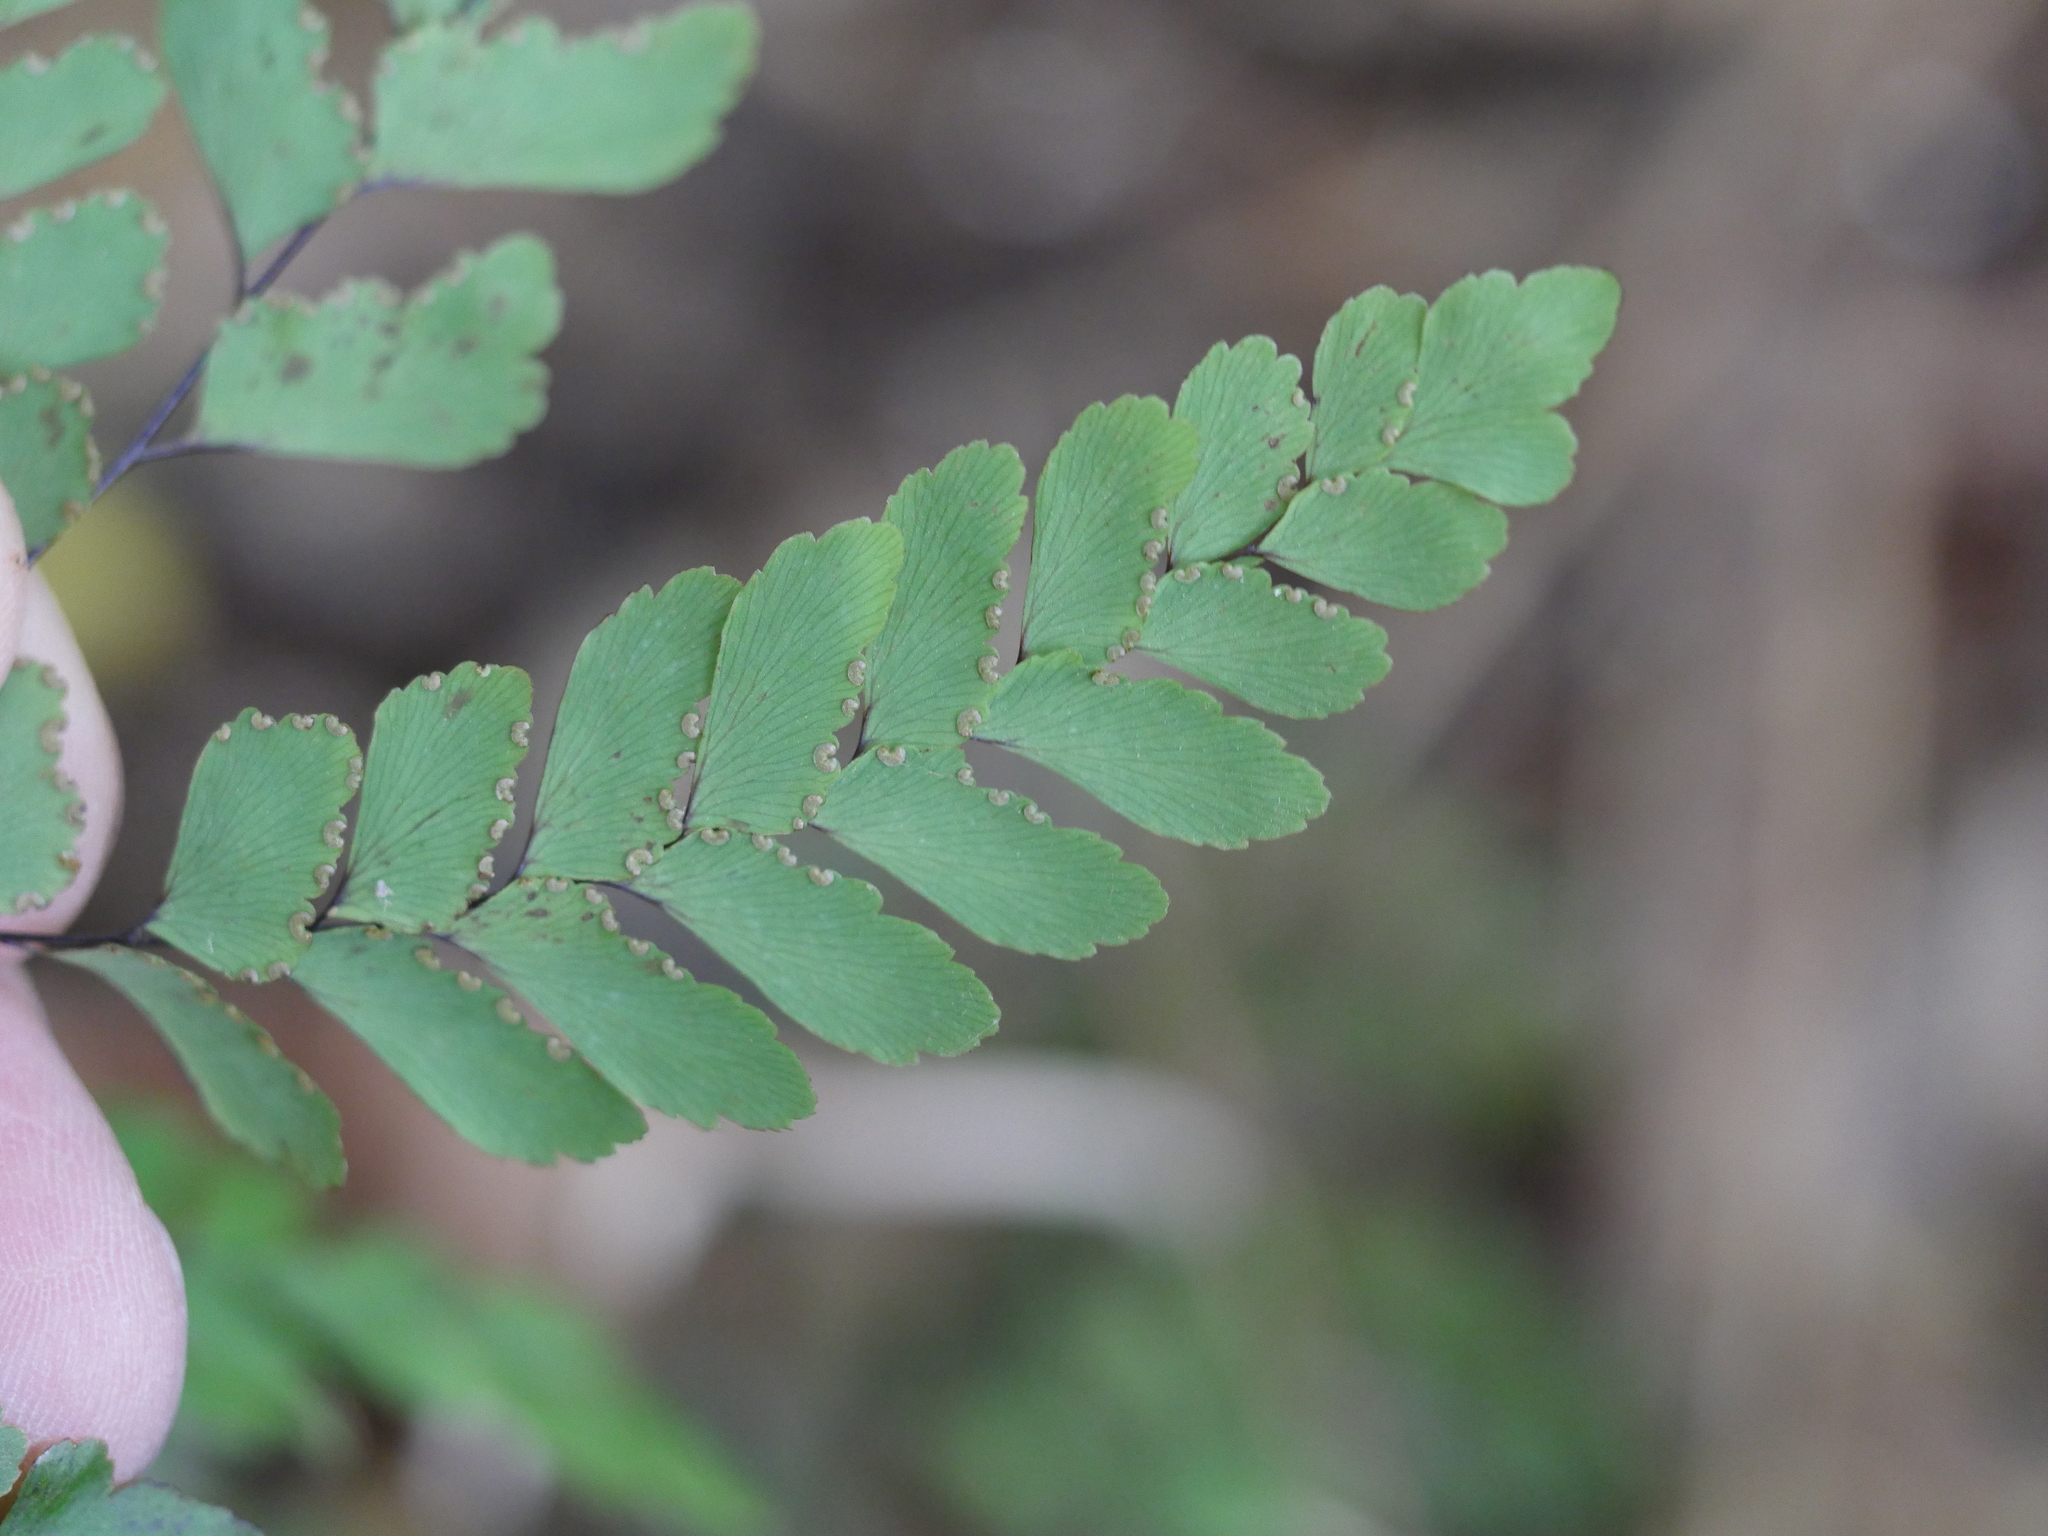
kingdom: Plantae
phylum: Tracheophyta
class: Polypodiopsida
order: Polypodiales
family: Pteridaceae
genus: Adiantum
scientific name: Adiantum cunninghamii
